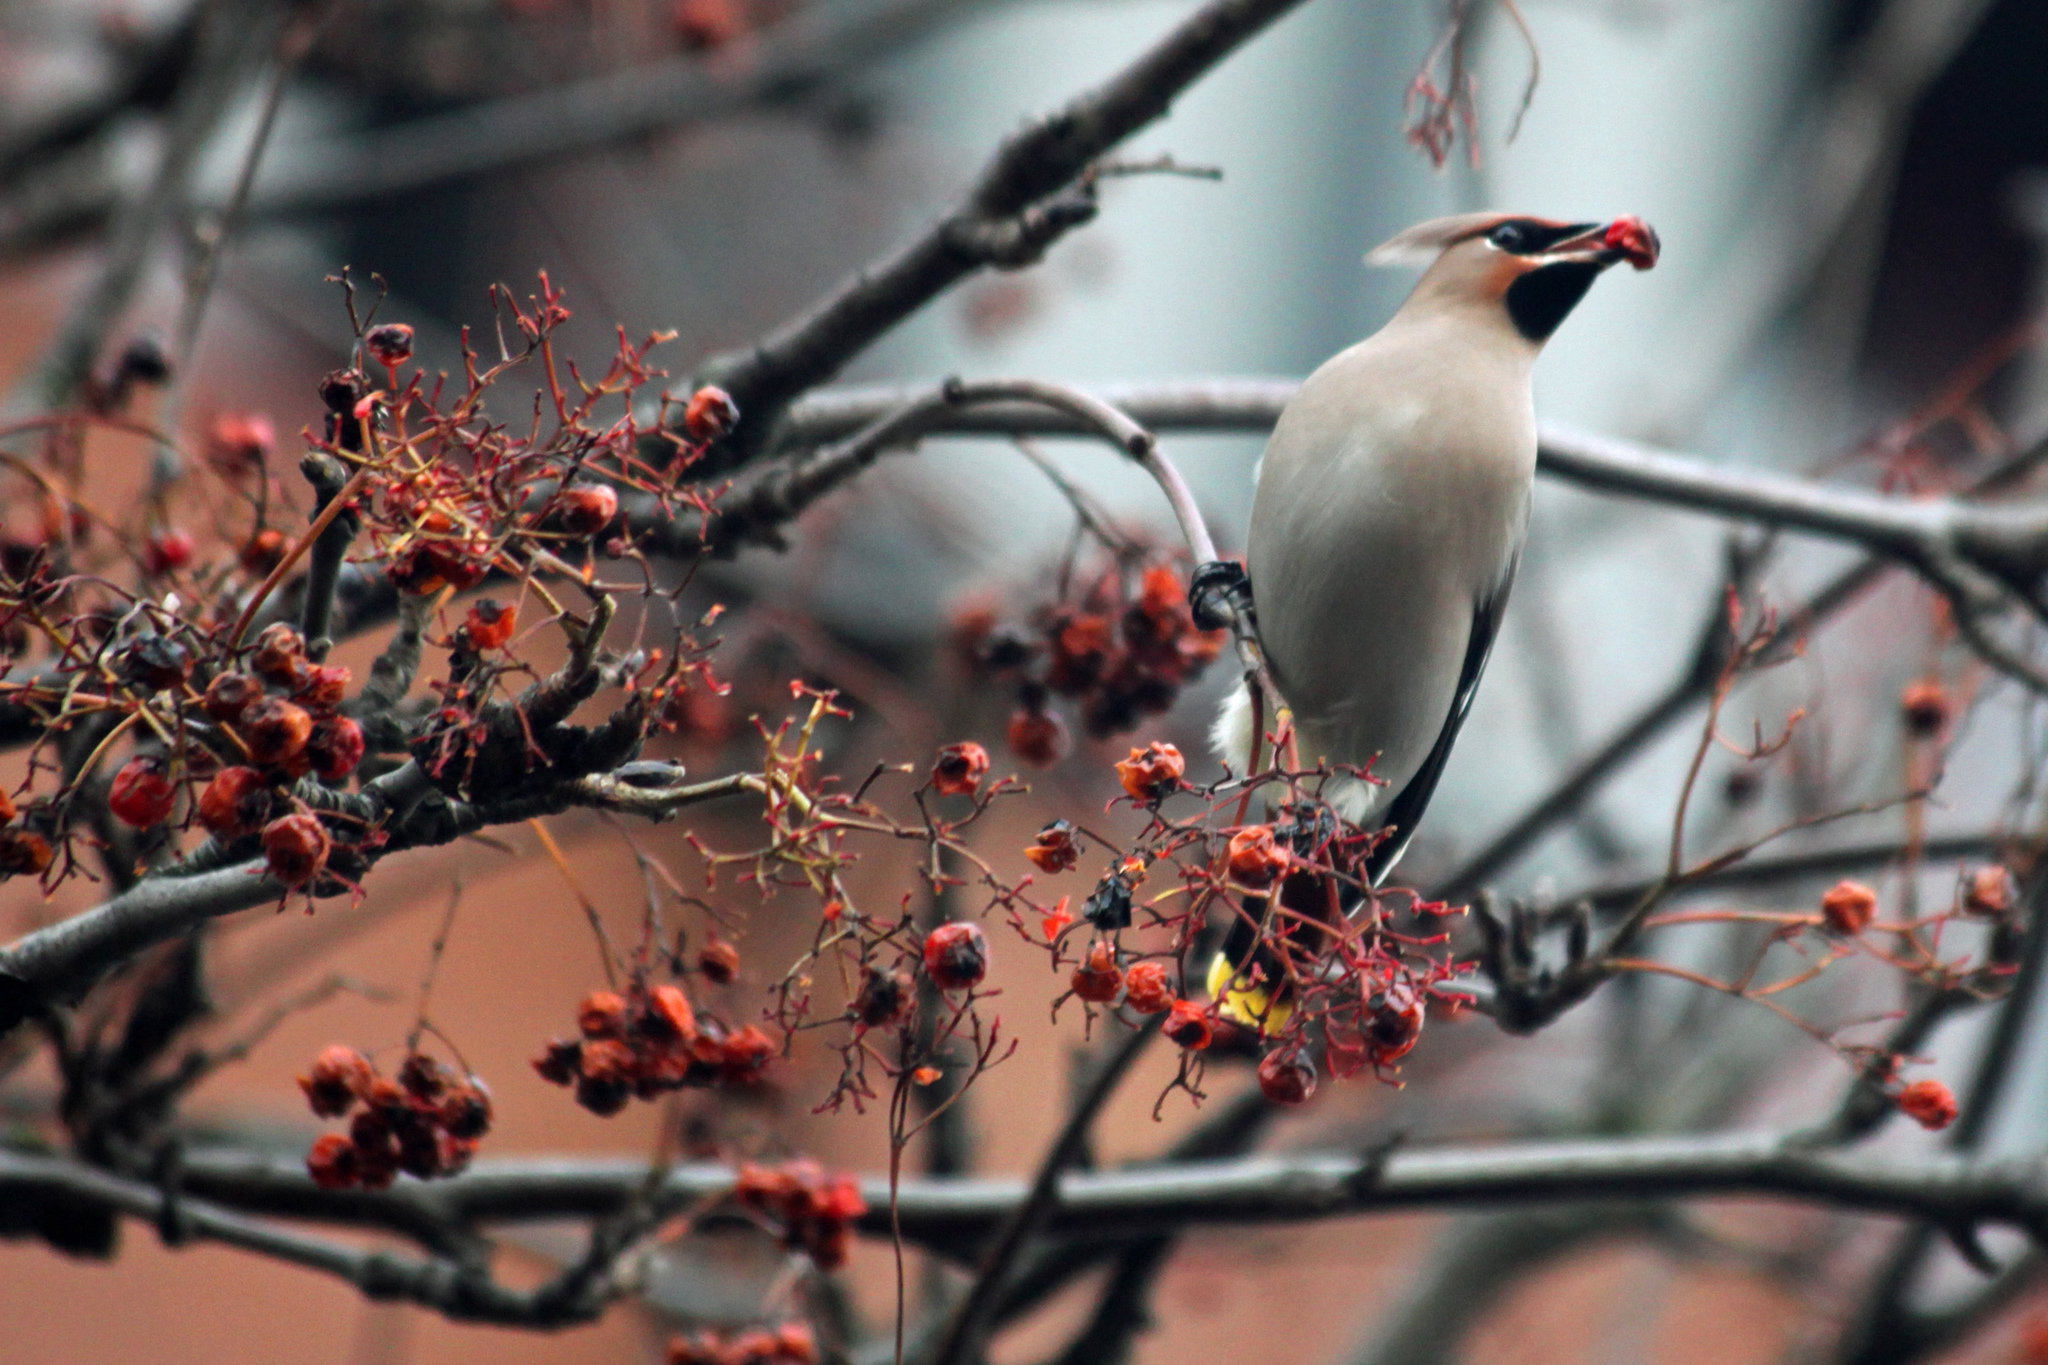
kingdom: Animalia
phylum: Chordata
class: Aves
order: Passeriformes
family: Bombycillidae
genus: Bombycilla
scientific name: Bombycilla garrulus
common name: Bohemian waxwing
